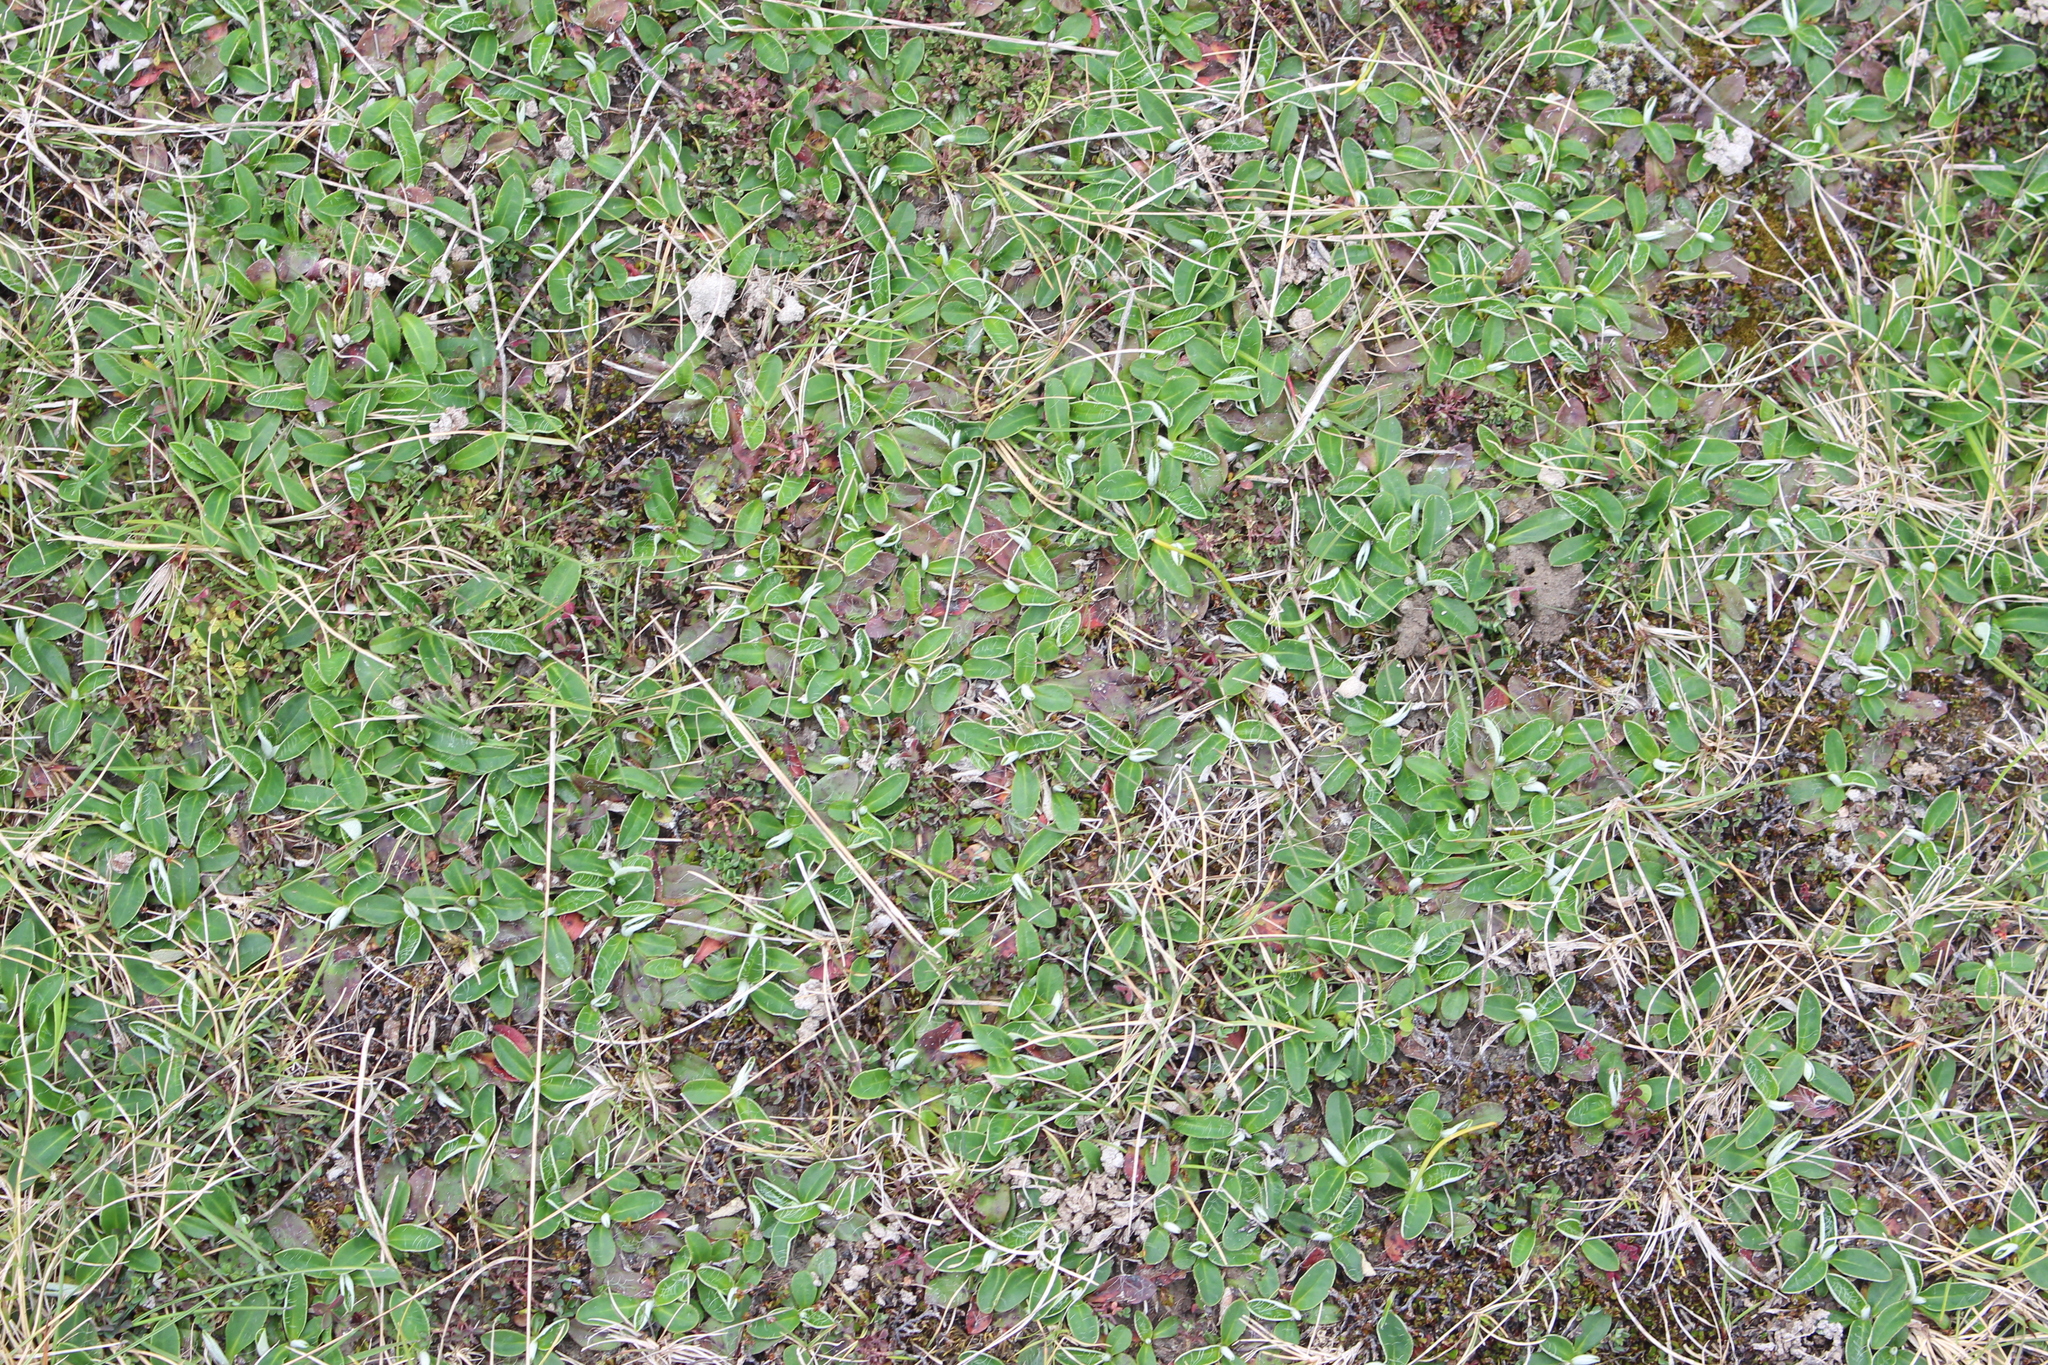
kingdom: Plantae
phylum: Tracheophyta
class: Magnoliopsida
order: Asterales
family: Asteraceae
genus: Pilosella
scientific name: Pilosella officinarum
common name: Mouse-ear hawkweed
